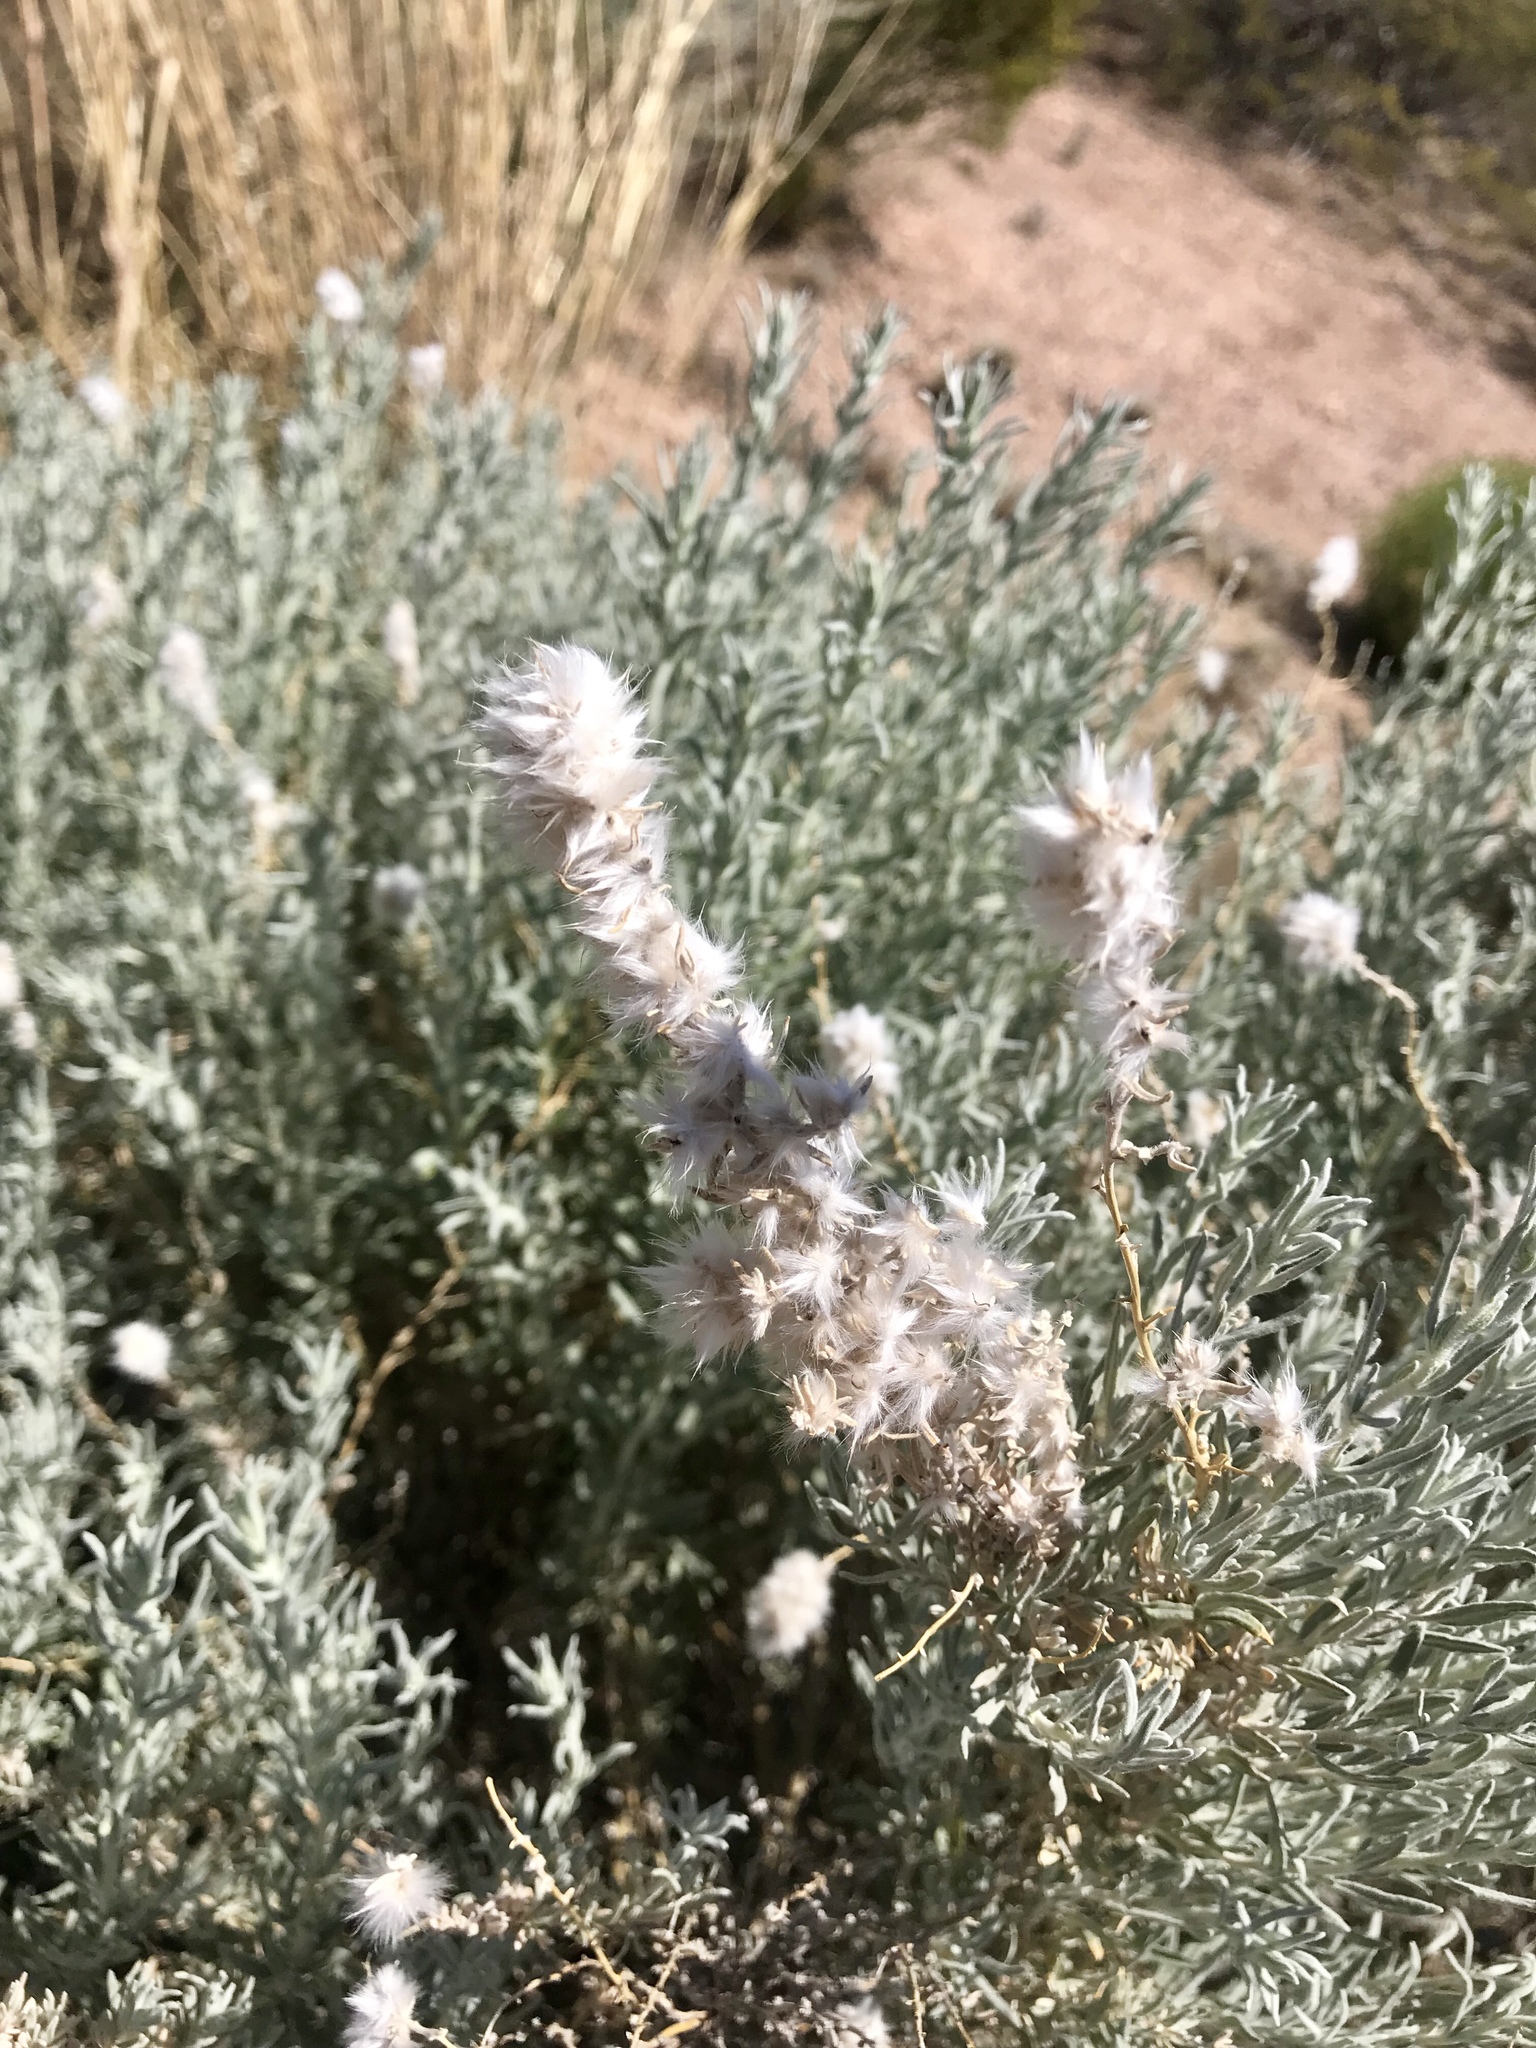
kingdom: Plantae
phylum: Tracheophyta
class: Magnoliopsida
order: Caryophyllales
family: Amaranthaceae
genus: Krascheninnikovia
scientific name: Krascheninnikovia lanata
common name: Winterfat
